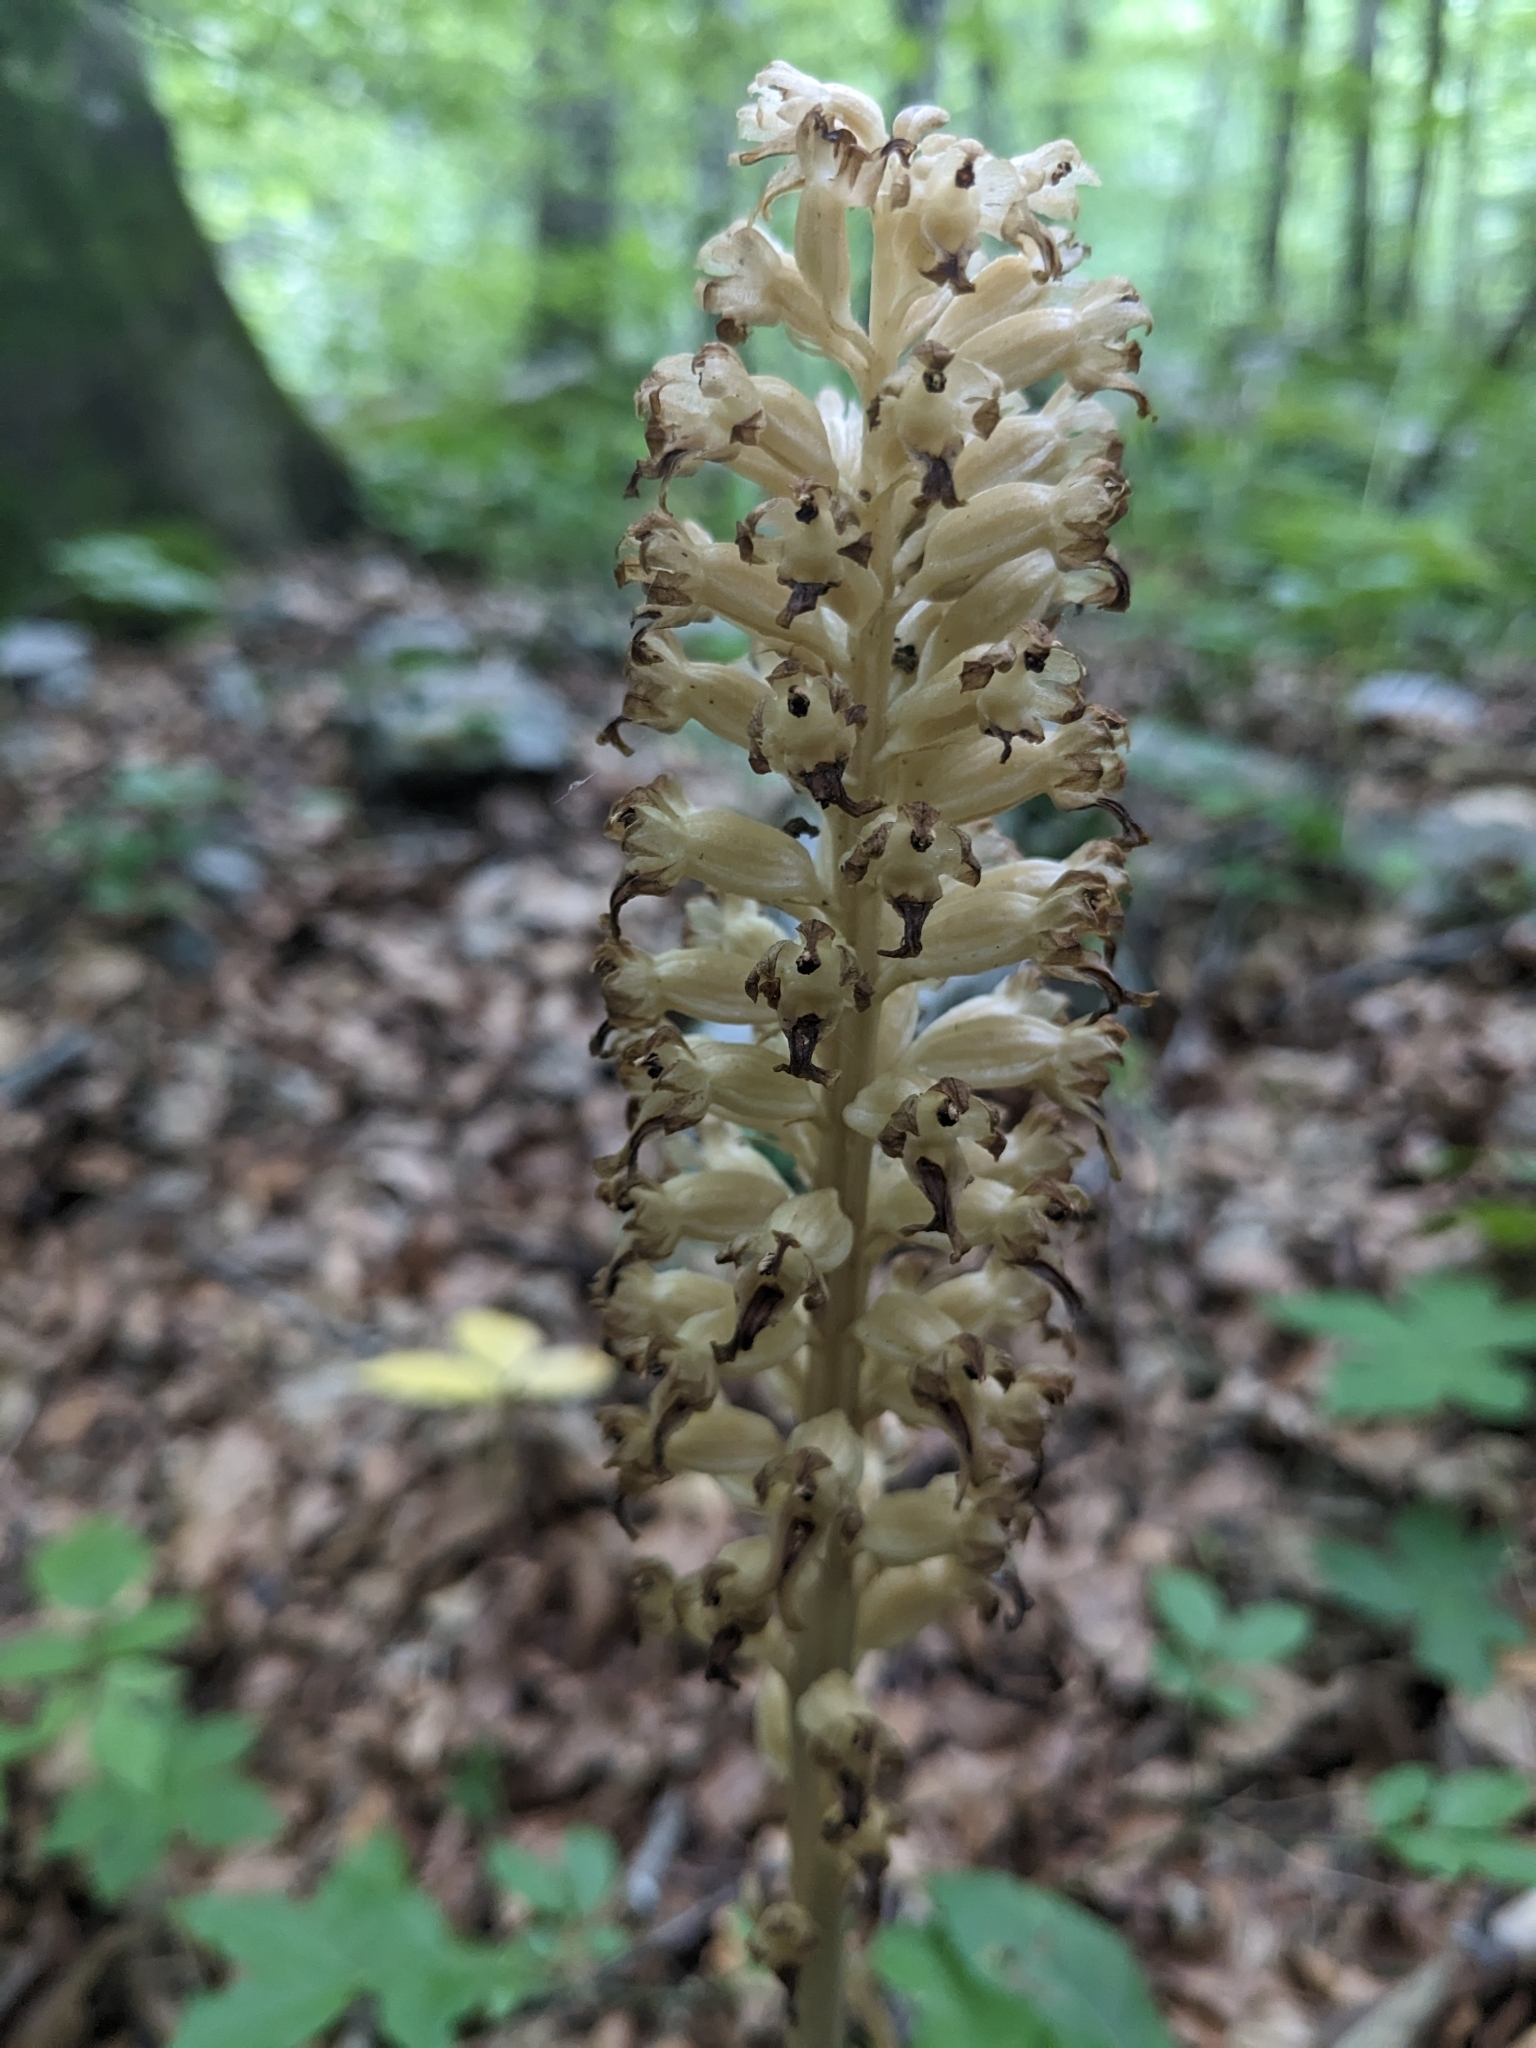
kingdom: Plantae
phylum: Tracheophyta
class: Liliopsida
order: Asparagales
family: Orchidaceae
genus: Neottia
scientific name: Neottia nidus-avis
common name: Bird's-nest orchid
